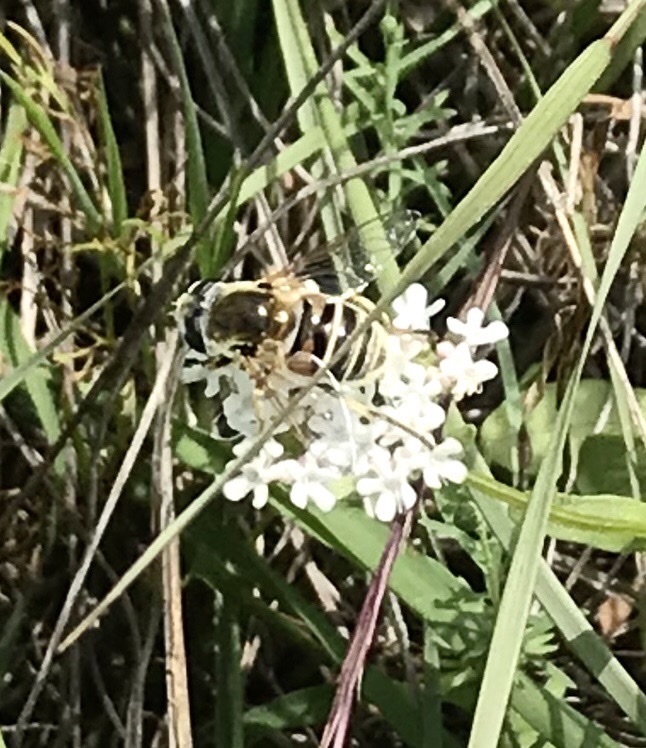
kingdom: Animalia
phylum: Arthropoda
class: Insecta
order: Diptera
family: Syrphidae
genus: Eristalis
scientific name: Eristalis stipator
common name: Yellow-shouldered drone fly
